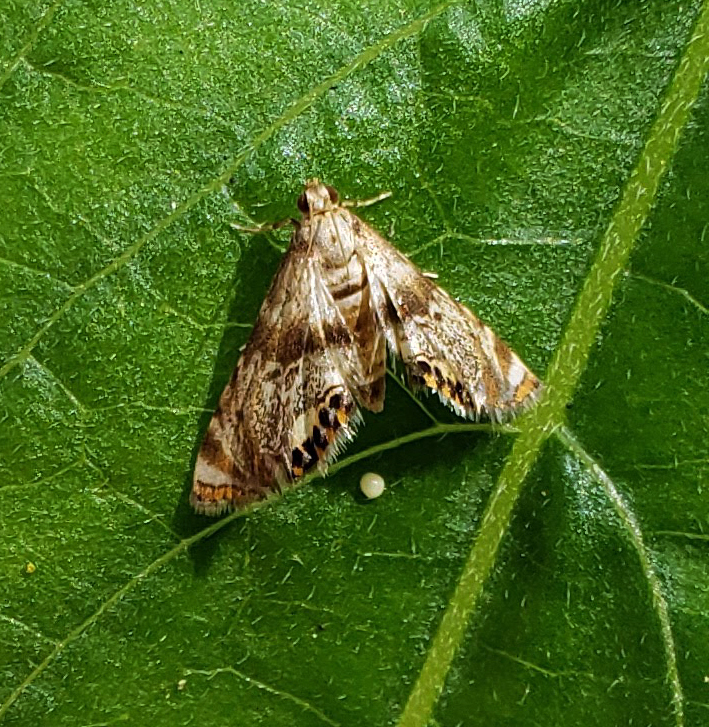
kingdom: Animalia
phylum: Arthropoda
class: Insecta
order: Lepidoptera
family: Crambidae
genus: Petrophila
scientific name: Petrophila fulicalis
